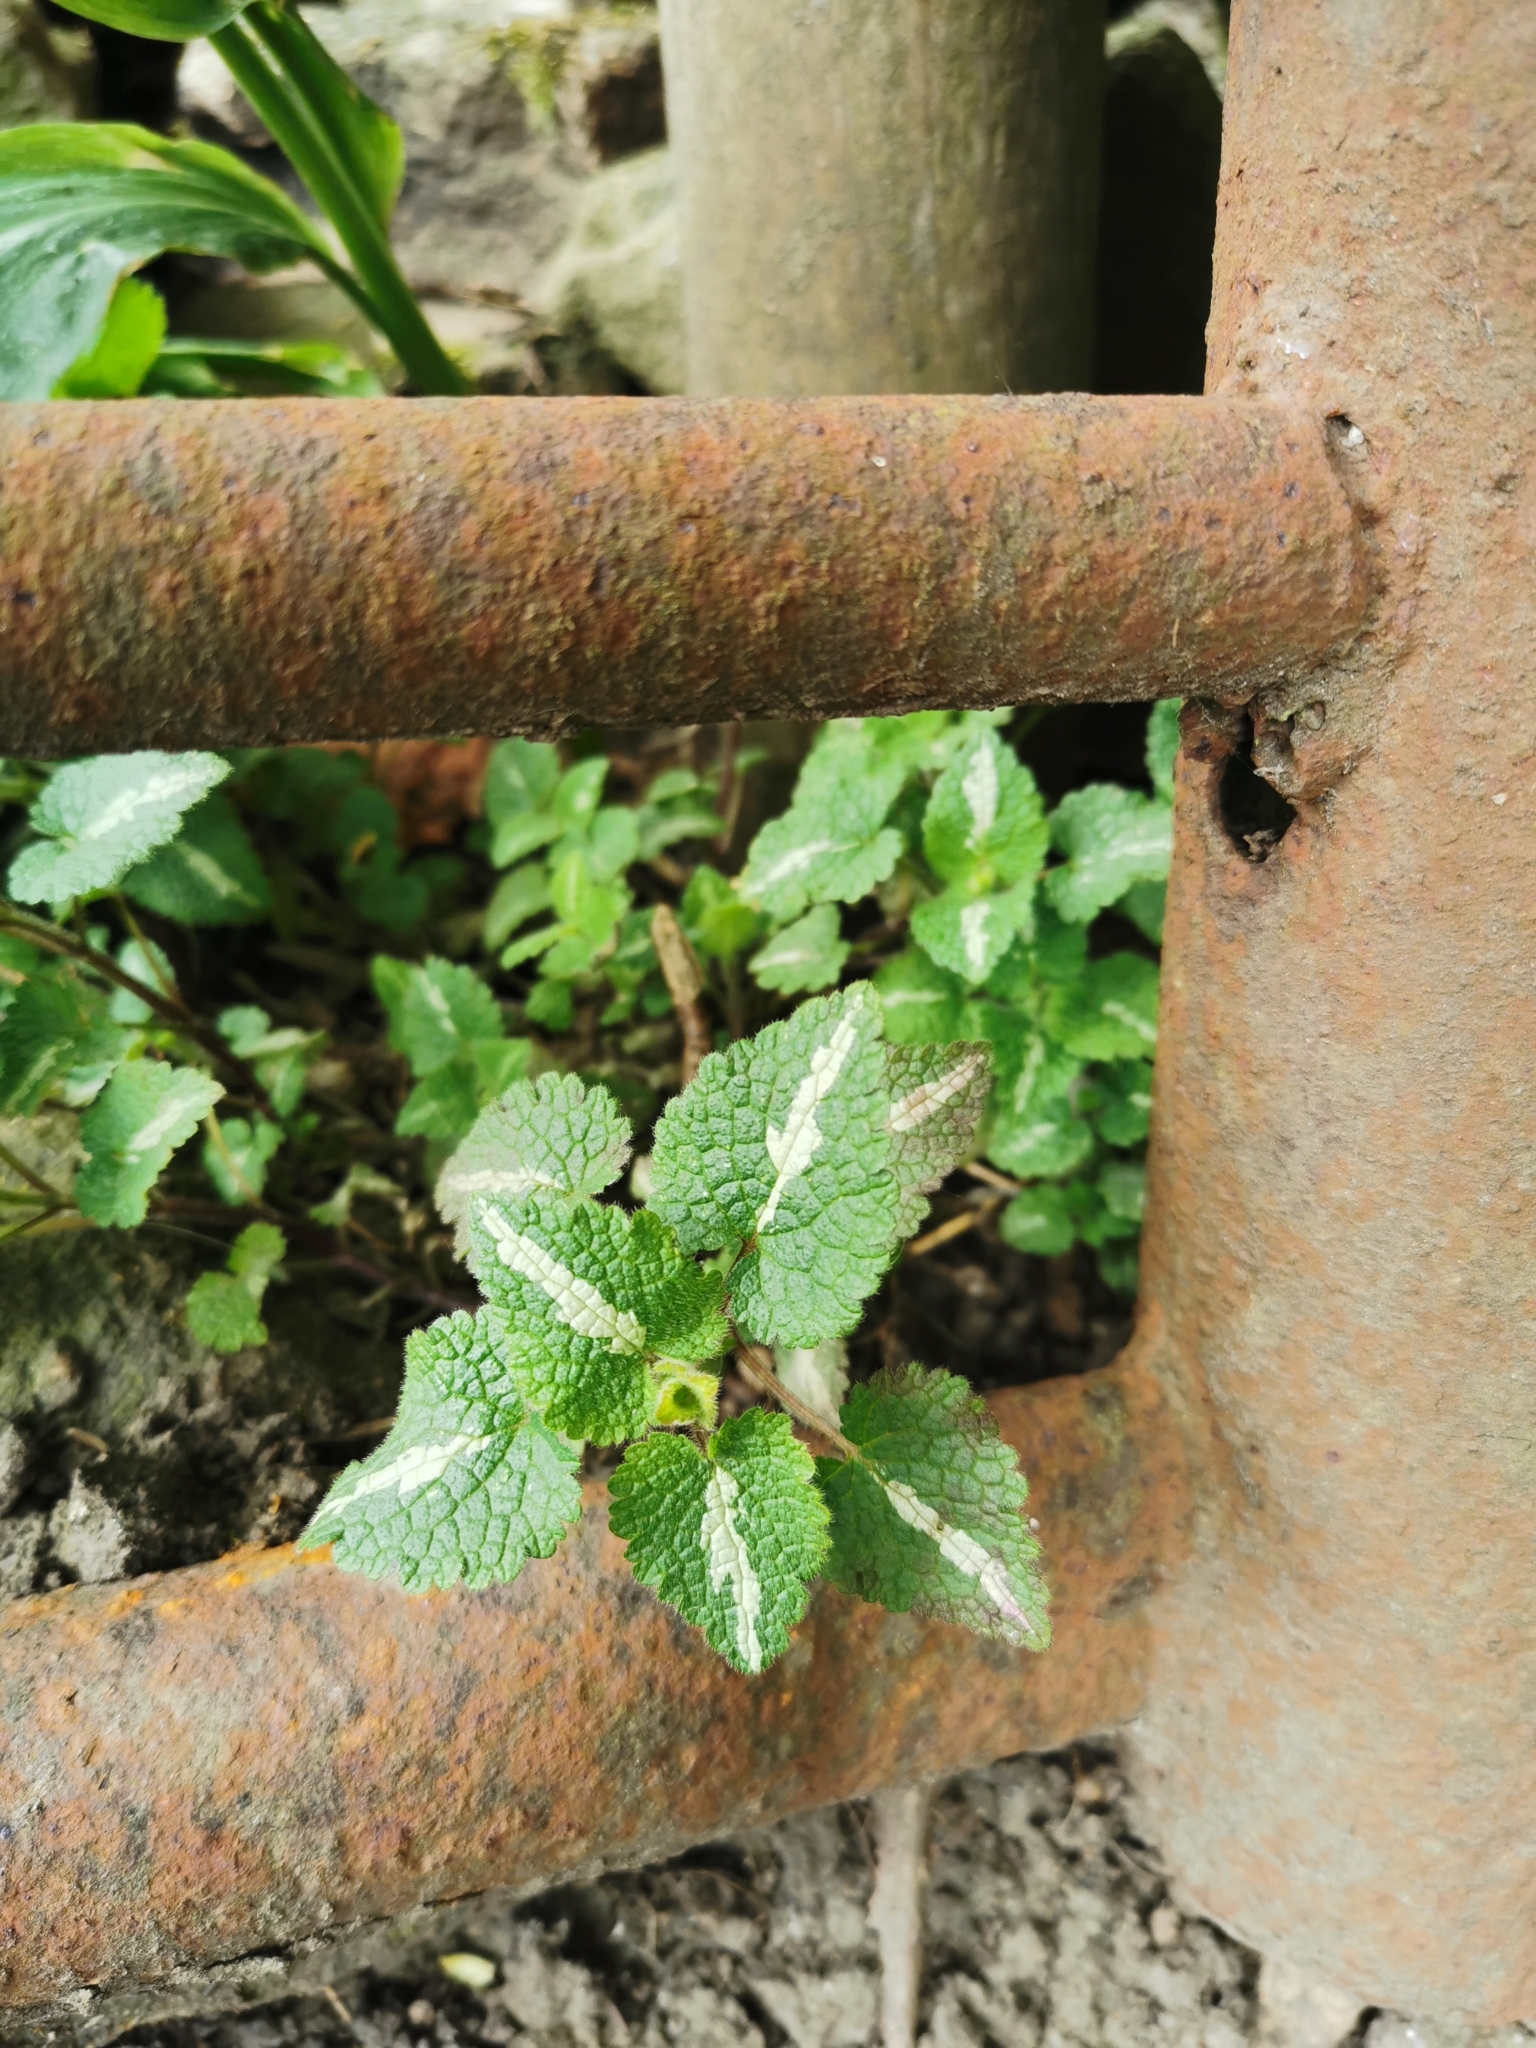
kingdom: Plantae
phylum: Tracheophyta
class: Magnoliopsida
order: Lamiales
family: Lamiaceae
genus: Lamium
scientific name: Lamium maculatum
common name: Spotted dead-nettle
